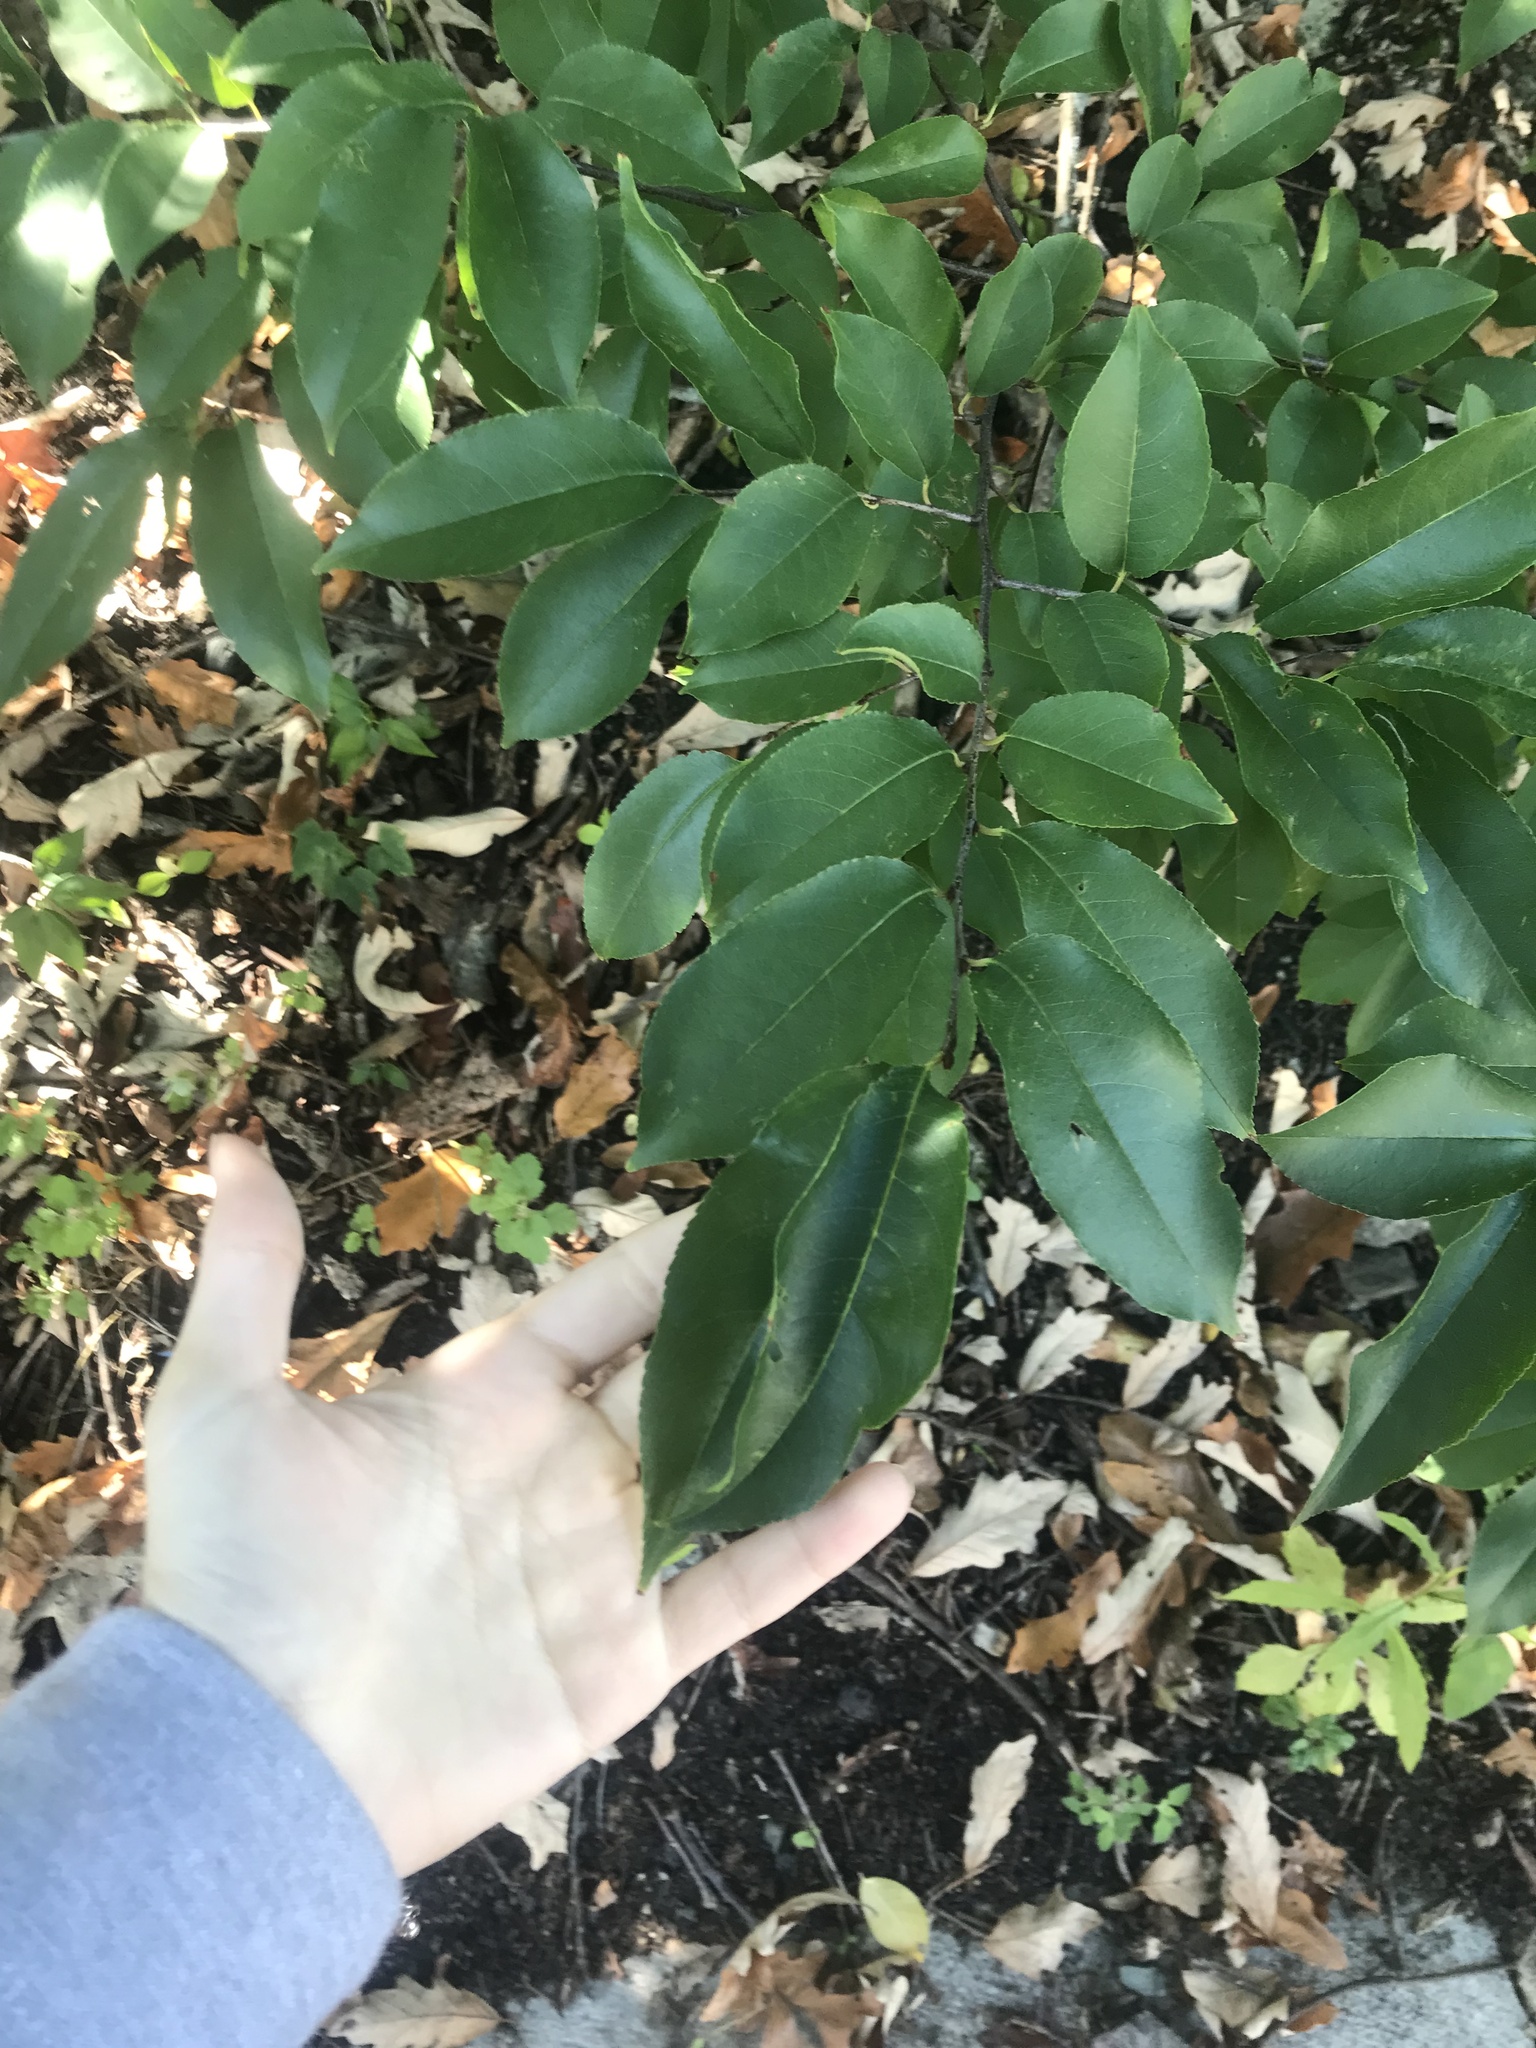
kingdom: Plantae
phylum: Tracheophyta
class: Magnoliopsida
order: Rosales
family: Rosaceae
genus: Prunus
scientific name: Prunus serotina
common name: Black cherry
